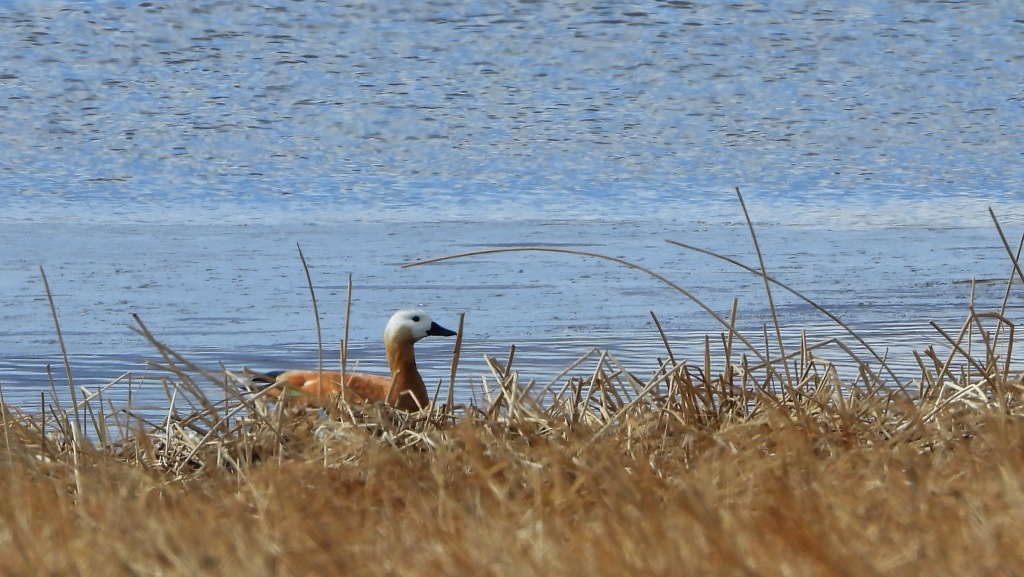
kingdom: Animalia
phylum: Chordata
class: Aves
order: Anseriformes
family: Anatidae
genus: Tadorna
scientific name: Tadorna ferruginea
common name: Ruddy shelduck
